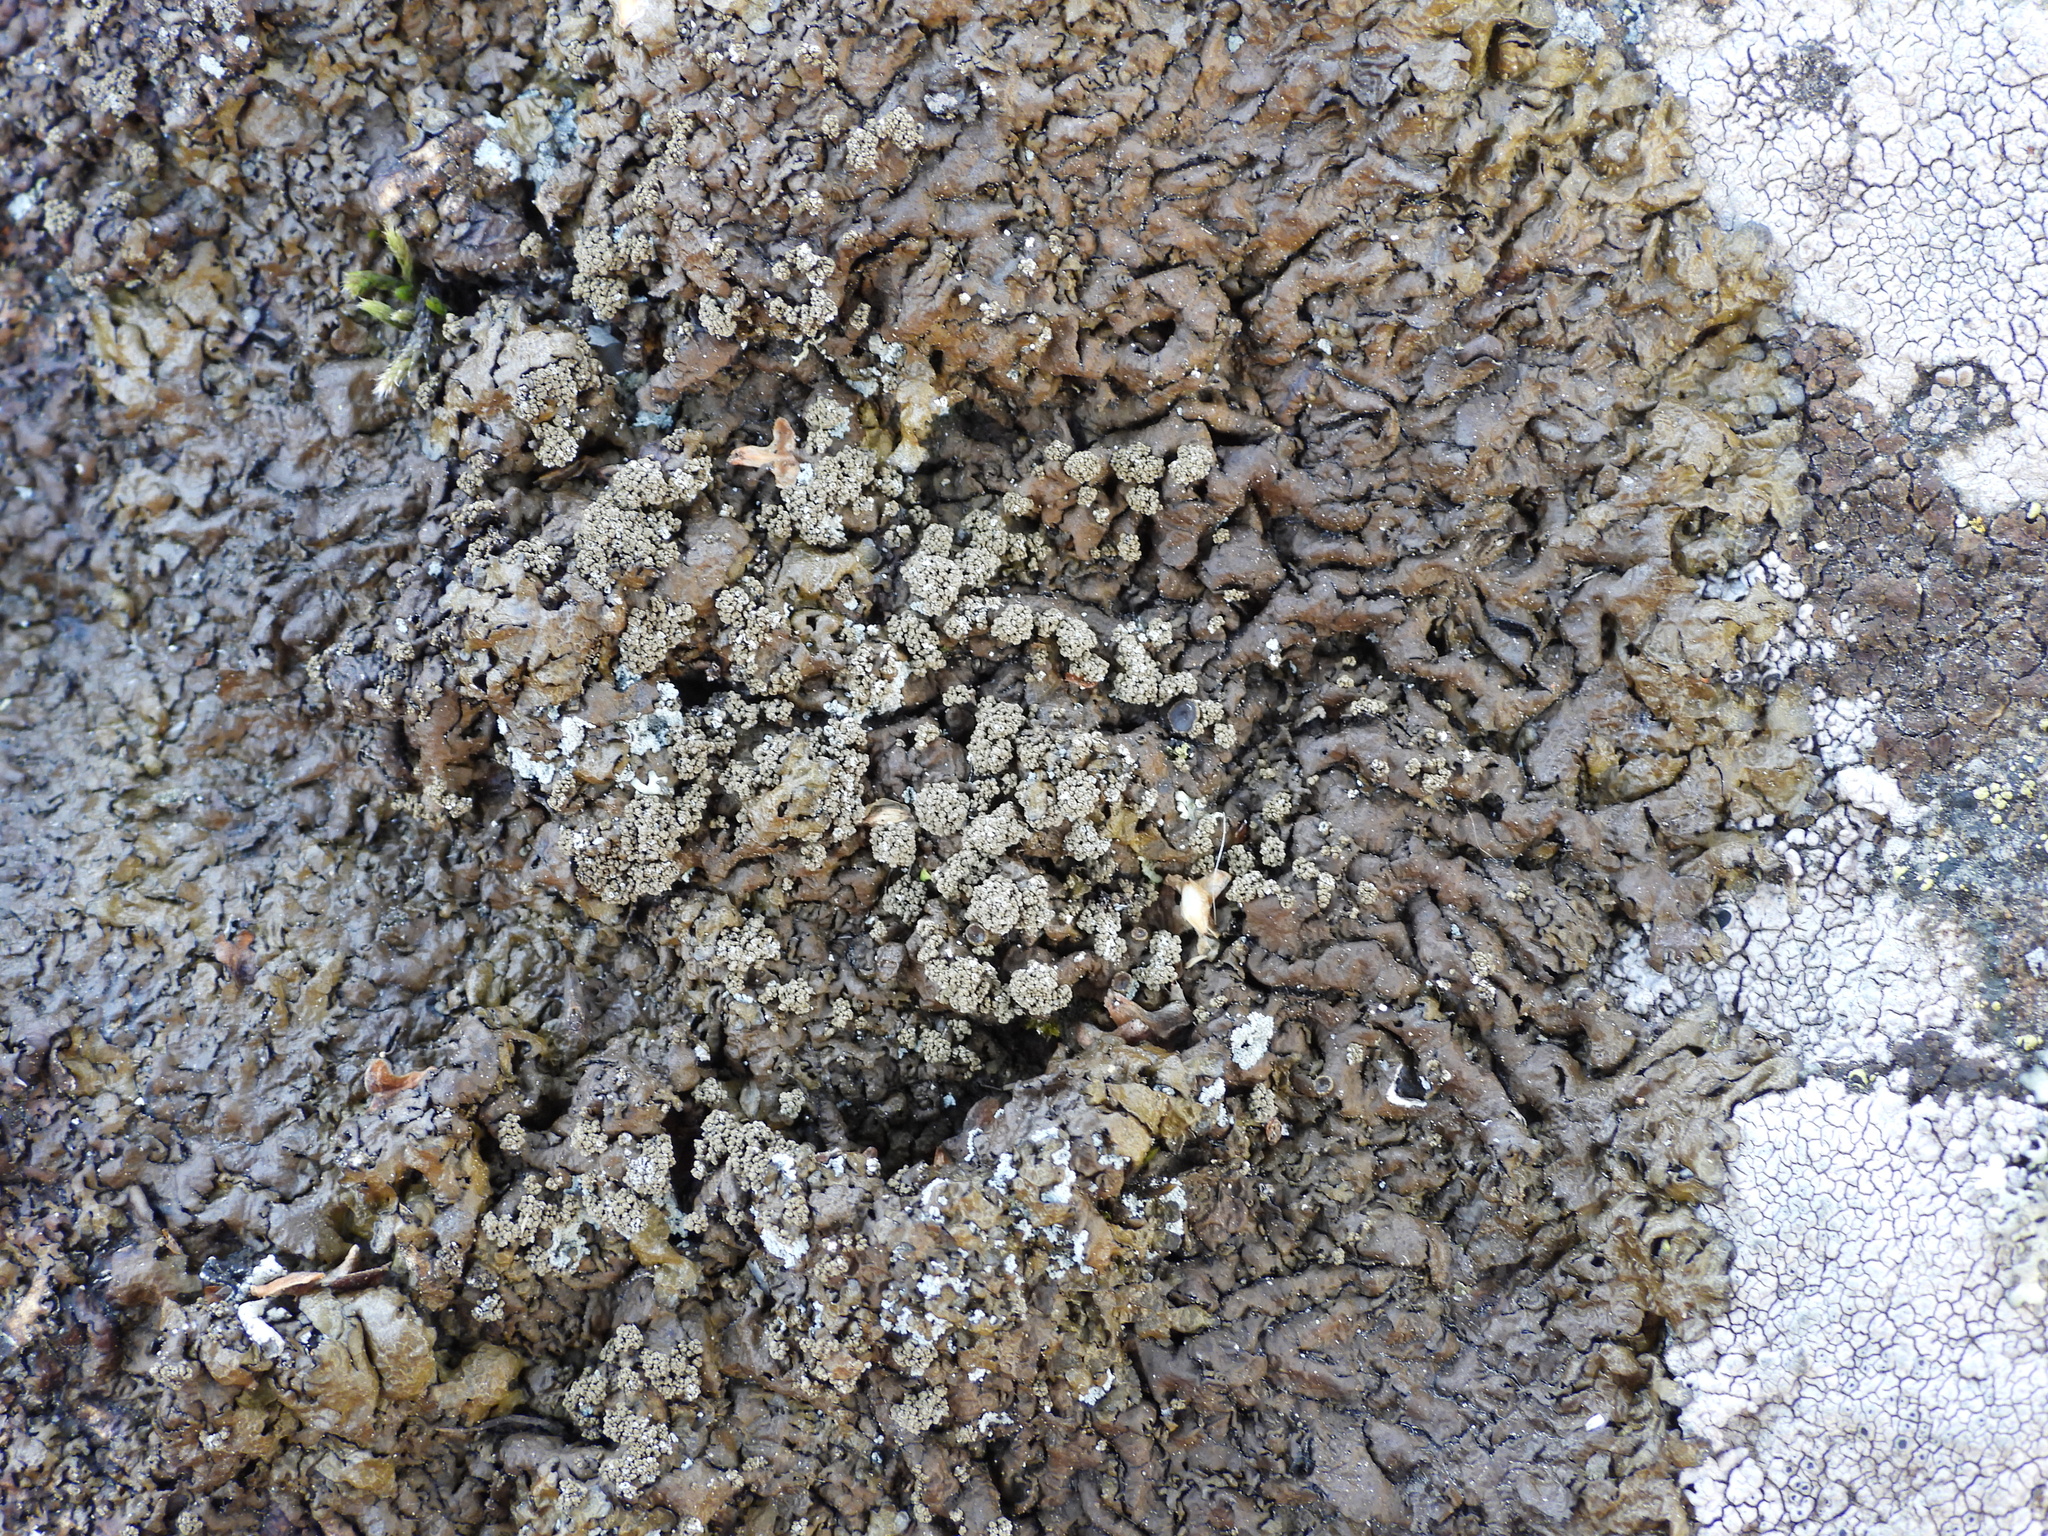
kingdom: Fungi
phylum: Ascomycota
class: Lecanoromycetes
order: Lecanorales
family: Parmeliaceae
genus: Xanthoparmelia
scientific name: Xanthoparmelia loxodes
